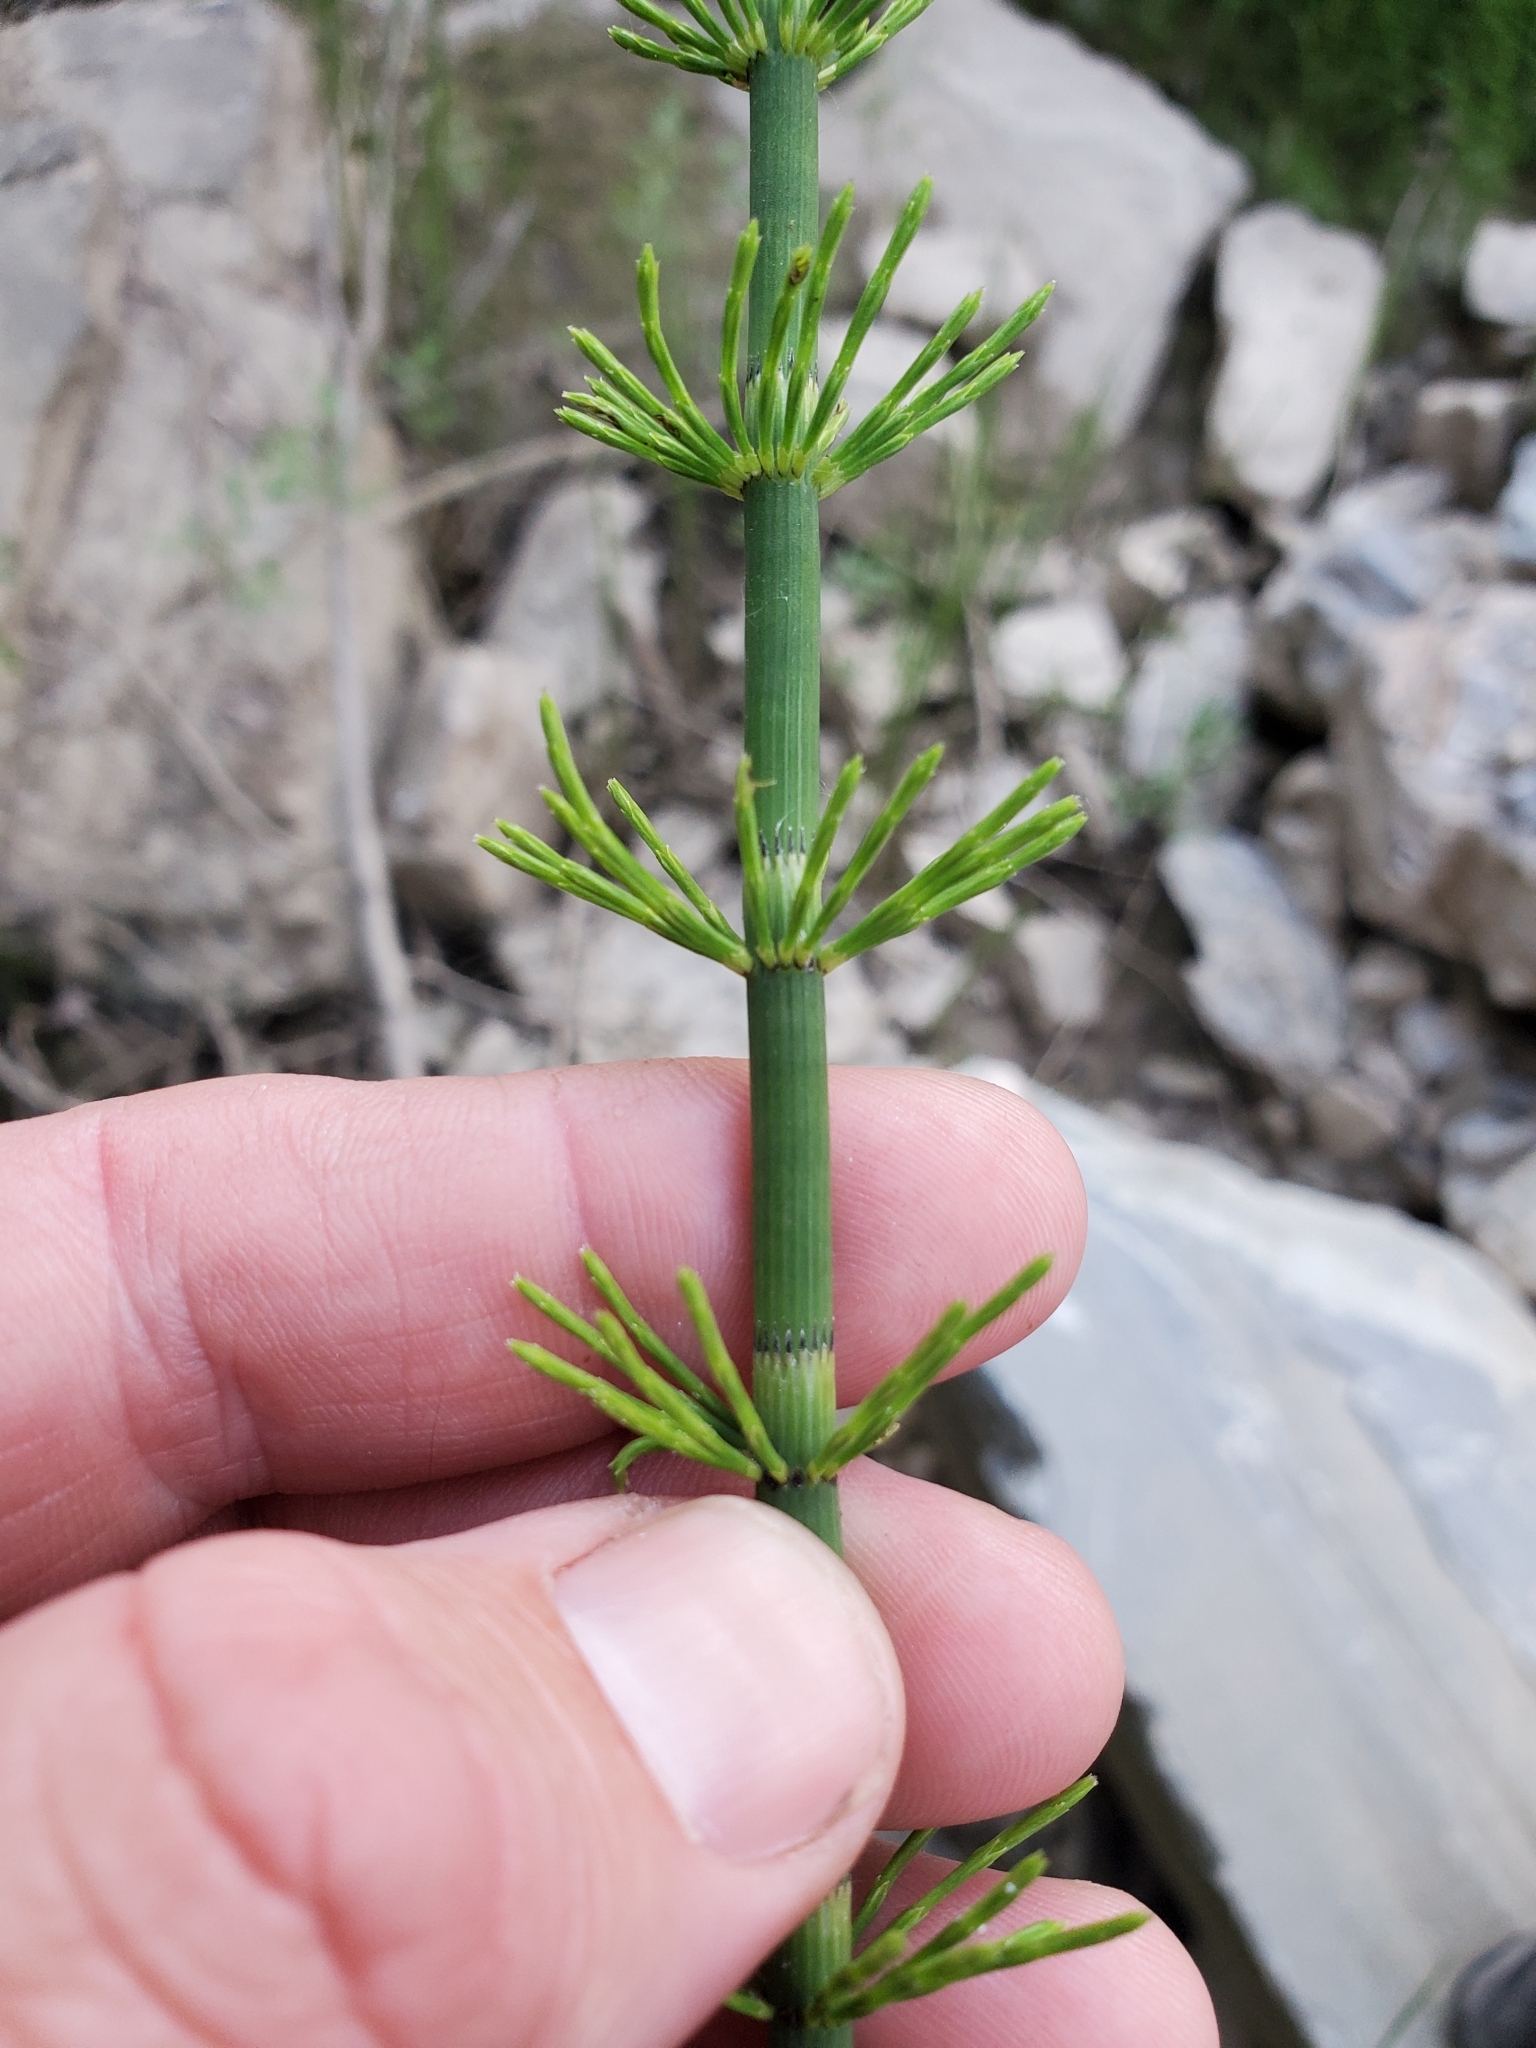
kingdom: Plantae
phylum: Tracheophyta
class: Polypodiopsida
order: Equisetales
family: Equisetaceae
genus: Equisetum
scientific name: Equisetum fluviatile
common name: Water horsetail
